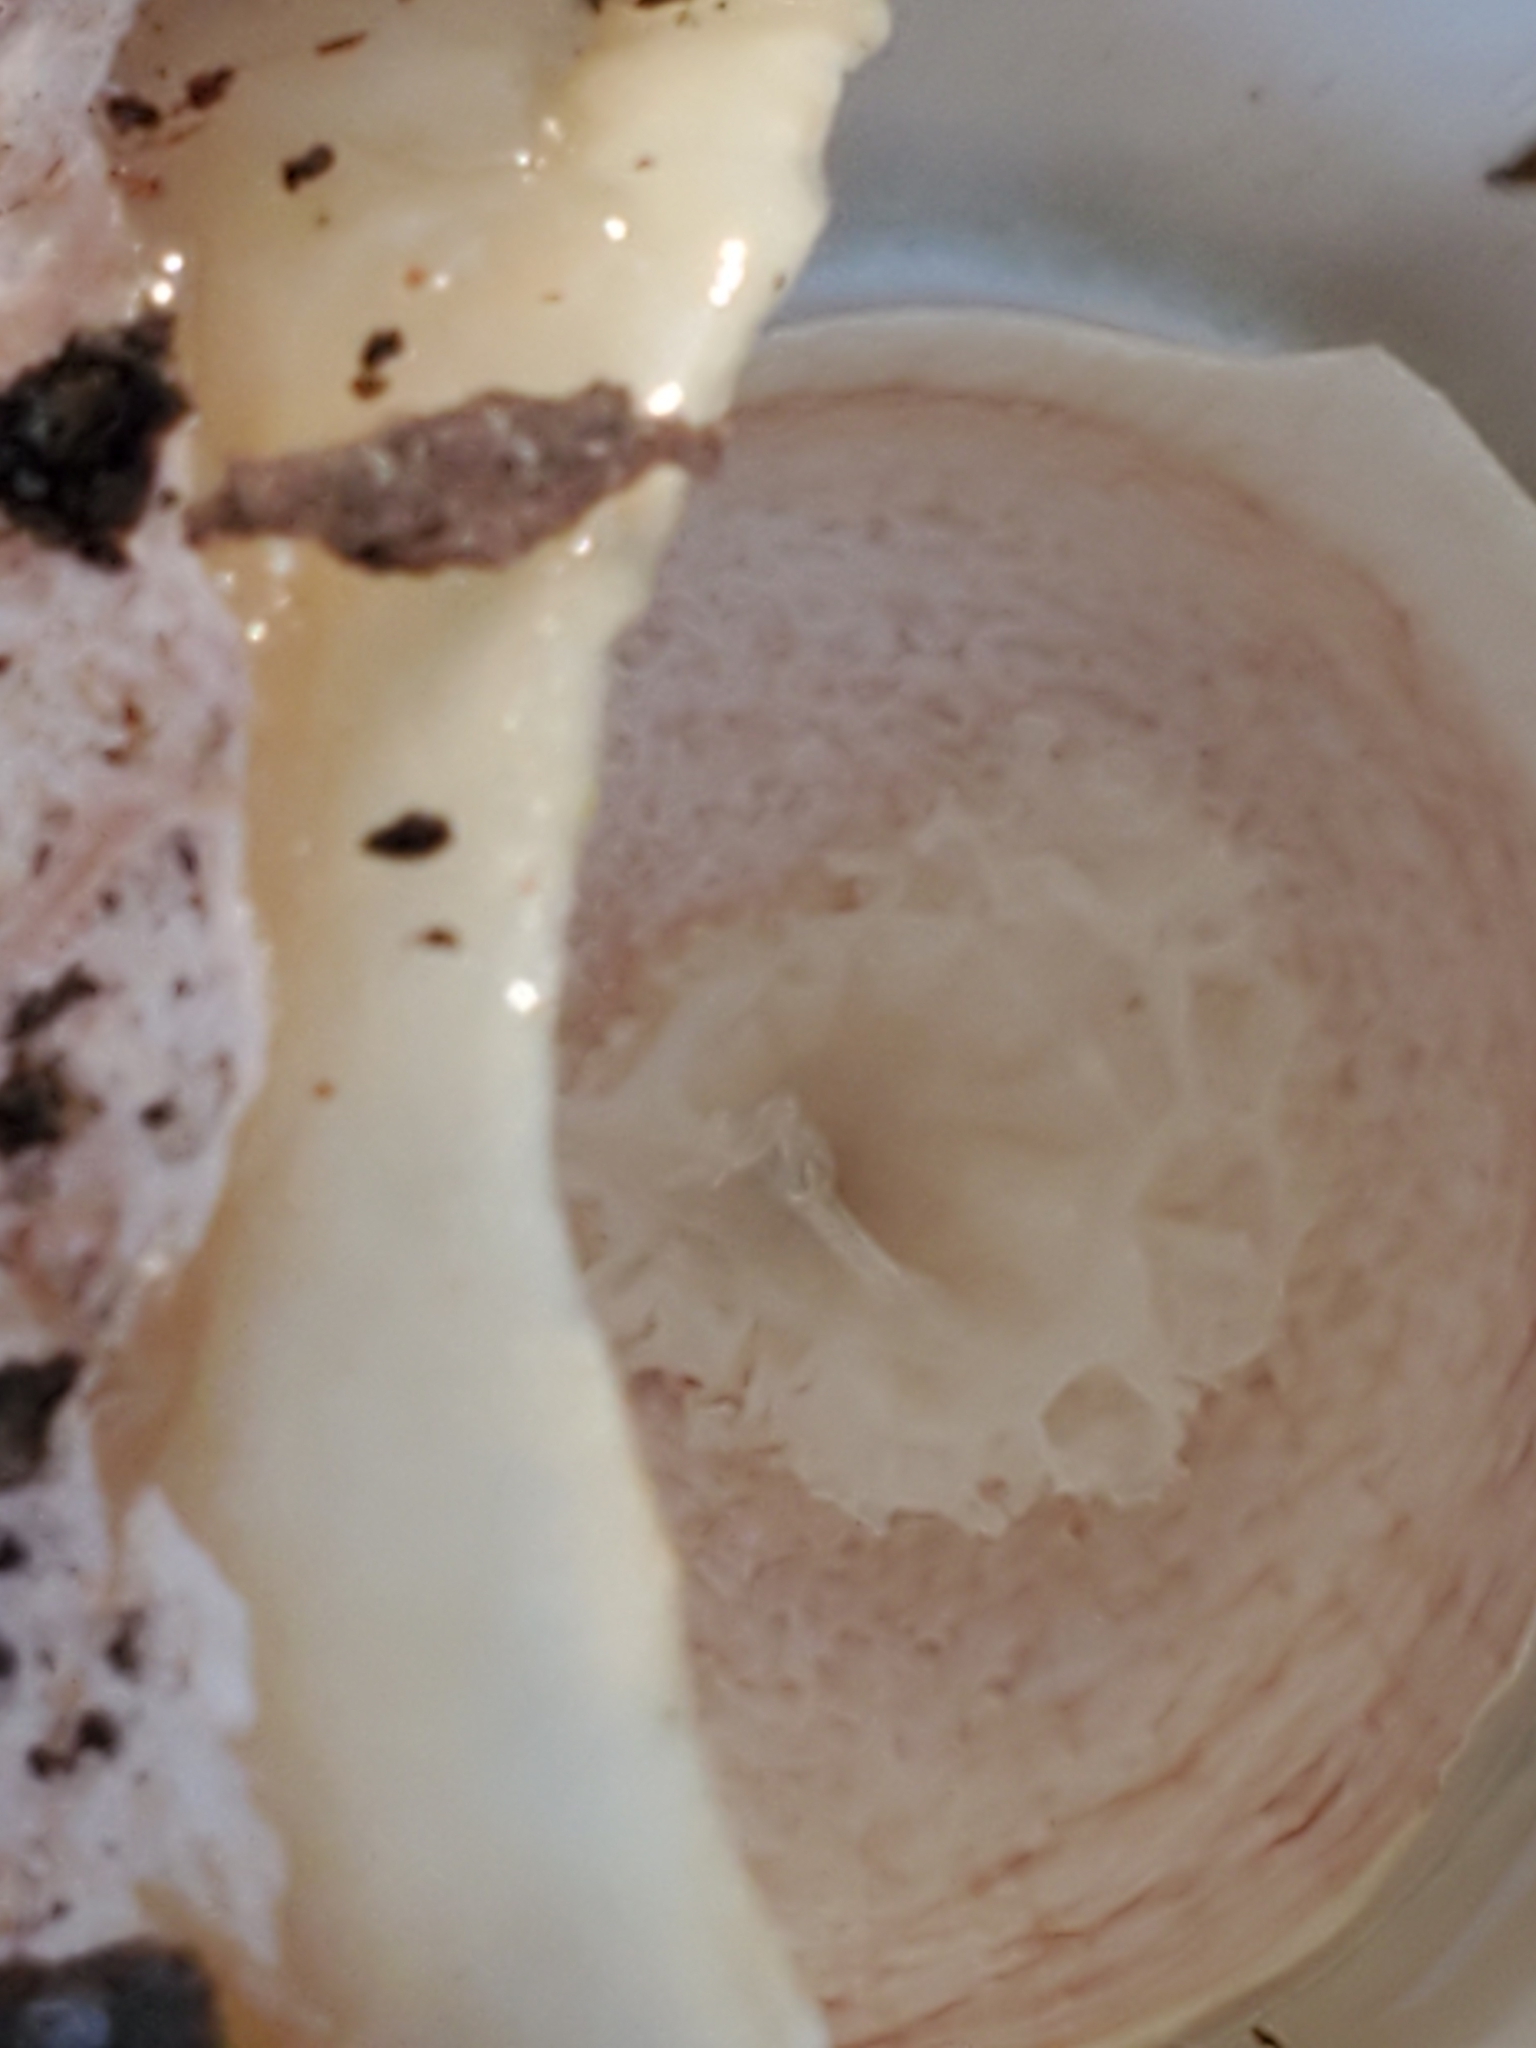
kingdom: Fungi
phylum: Basidiomycota
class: Agaricomycetes
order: Phallales
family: Phallaceae
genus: Phallus
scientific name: Phallus ravenelii
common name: Ravenel's stinkhorn
